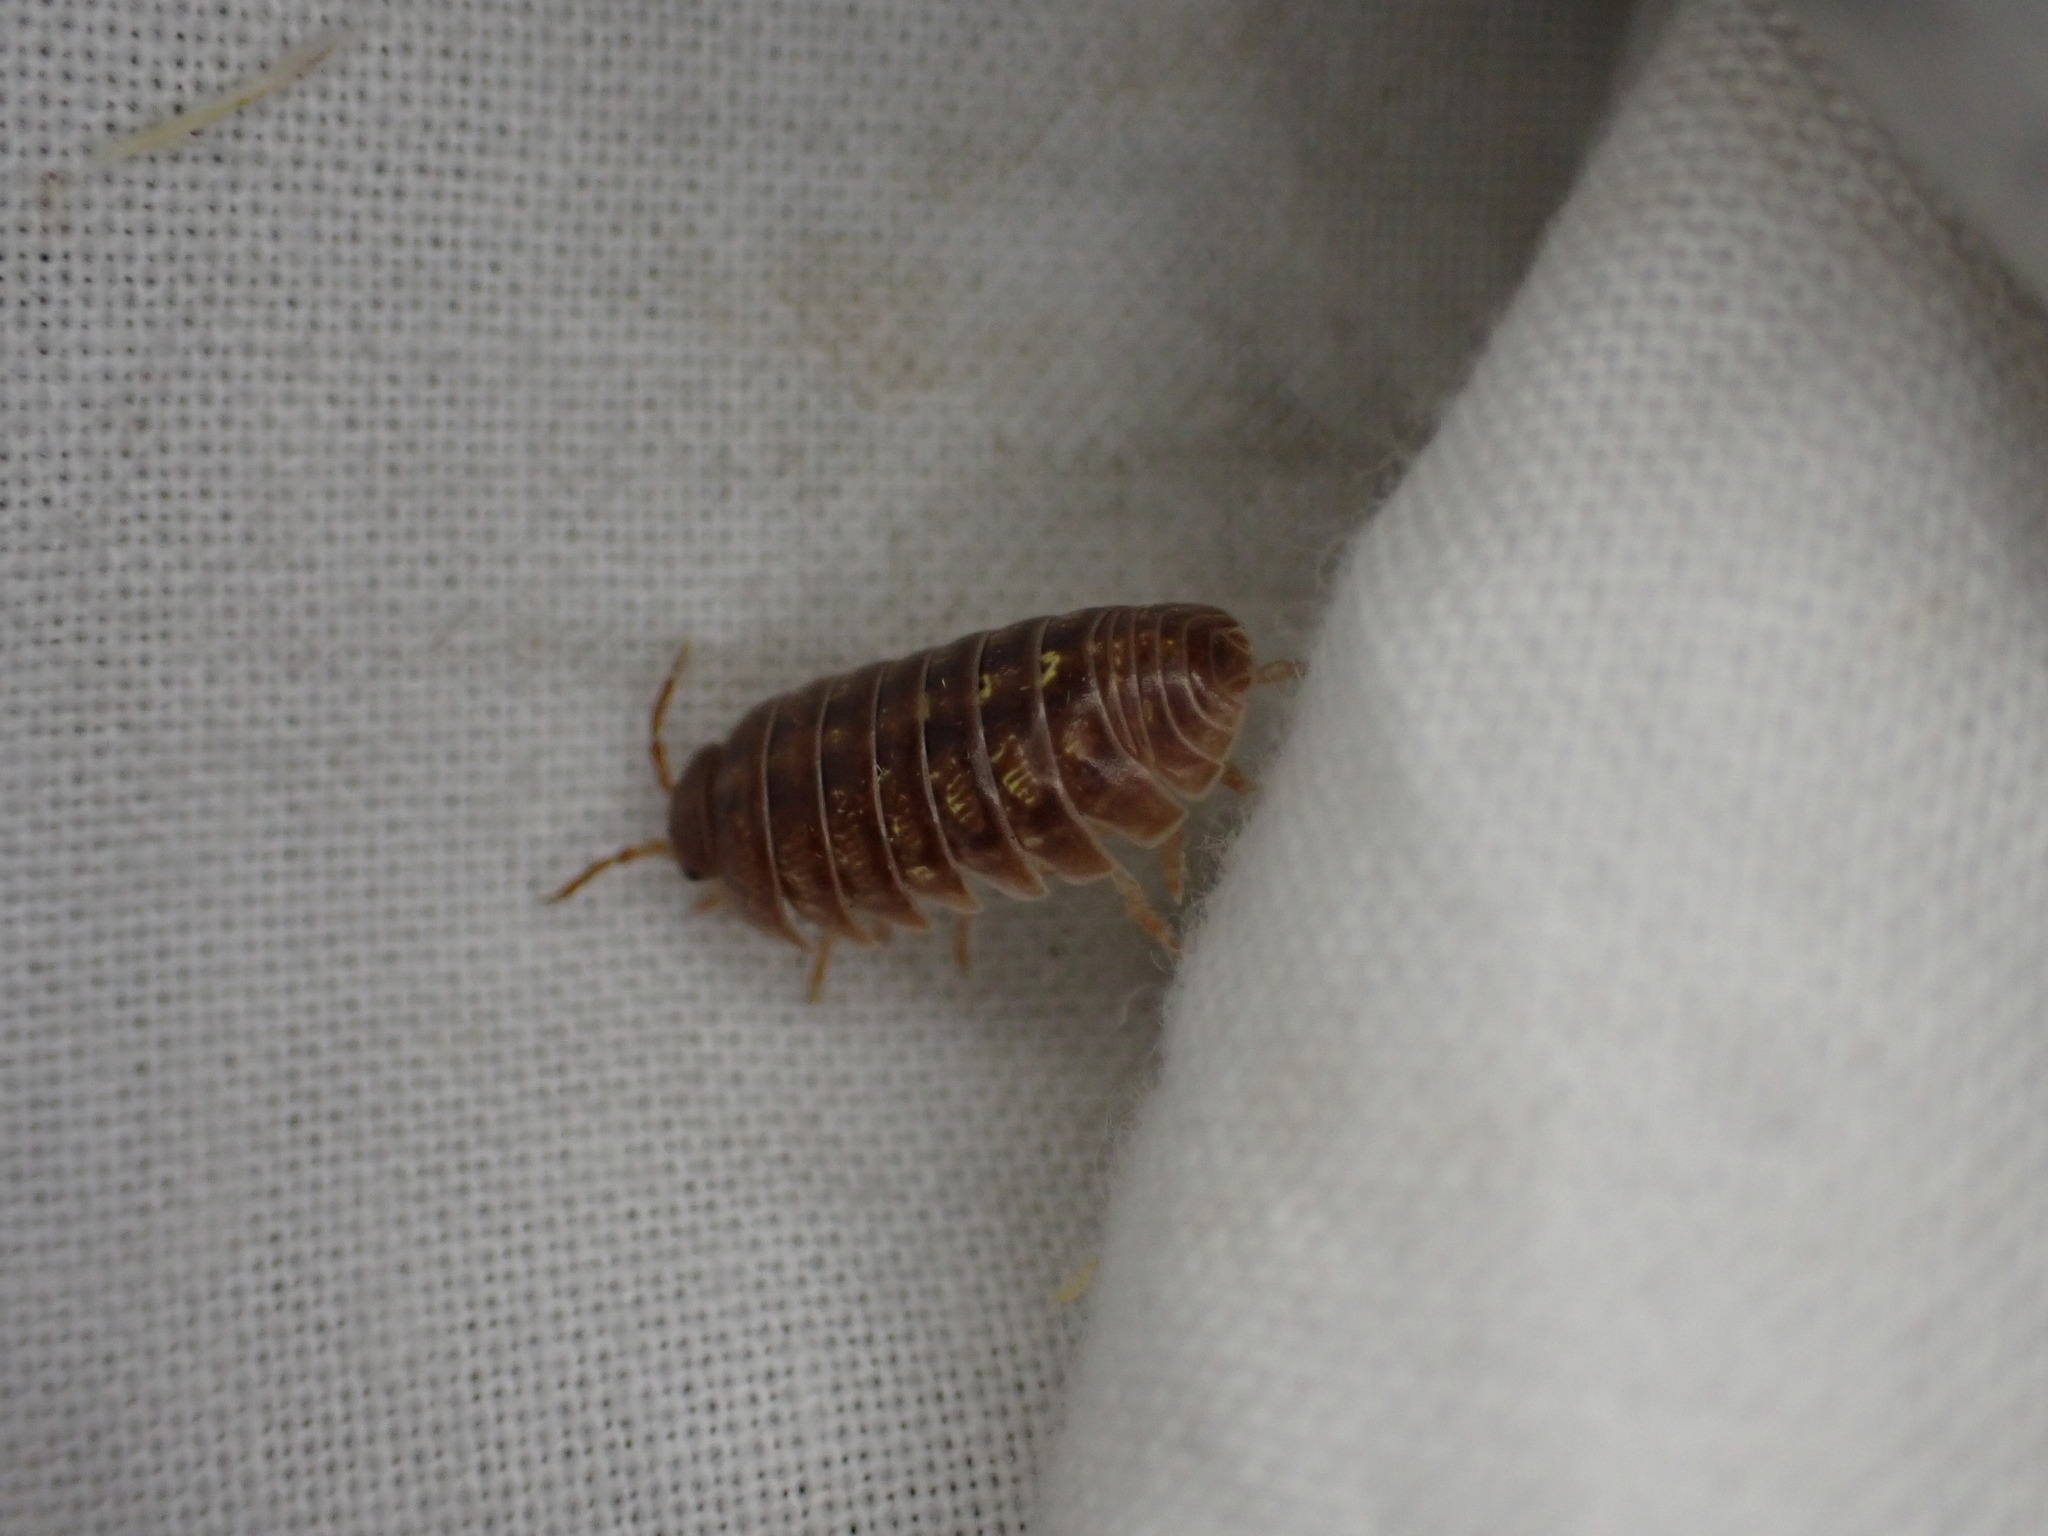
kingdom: Animalia
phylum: Arthropoda
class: Malacostraca
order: Isopoda
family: Armadillidiidae
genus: Armadillidium
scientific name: Armadillidium vulgare
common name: Common pill woodlouse
